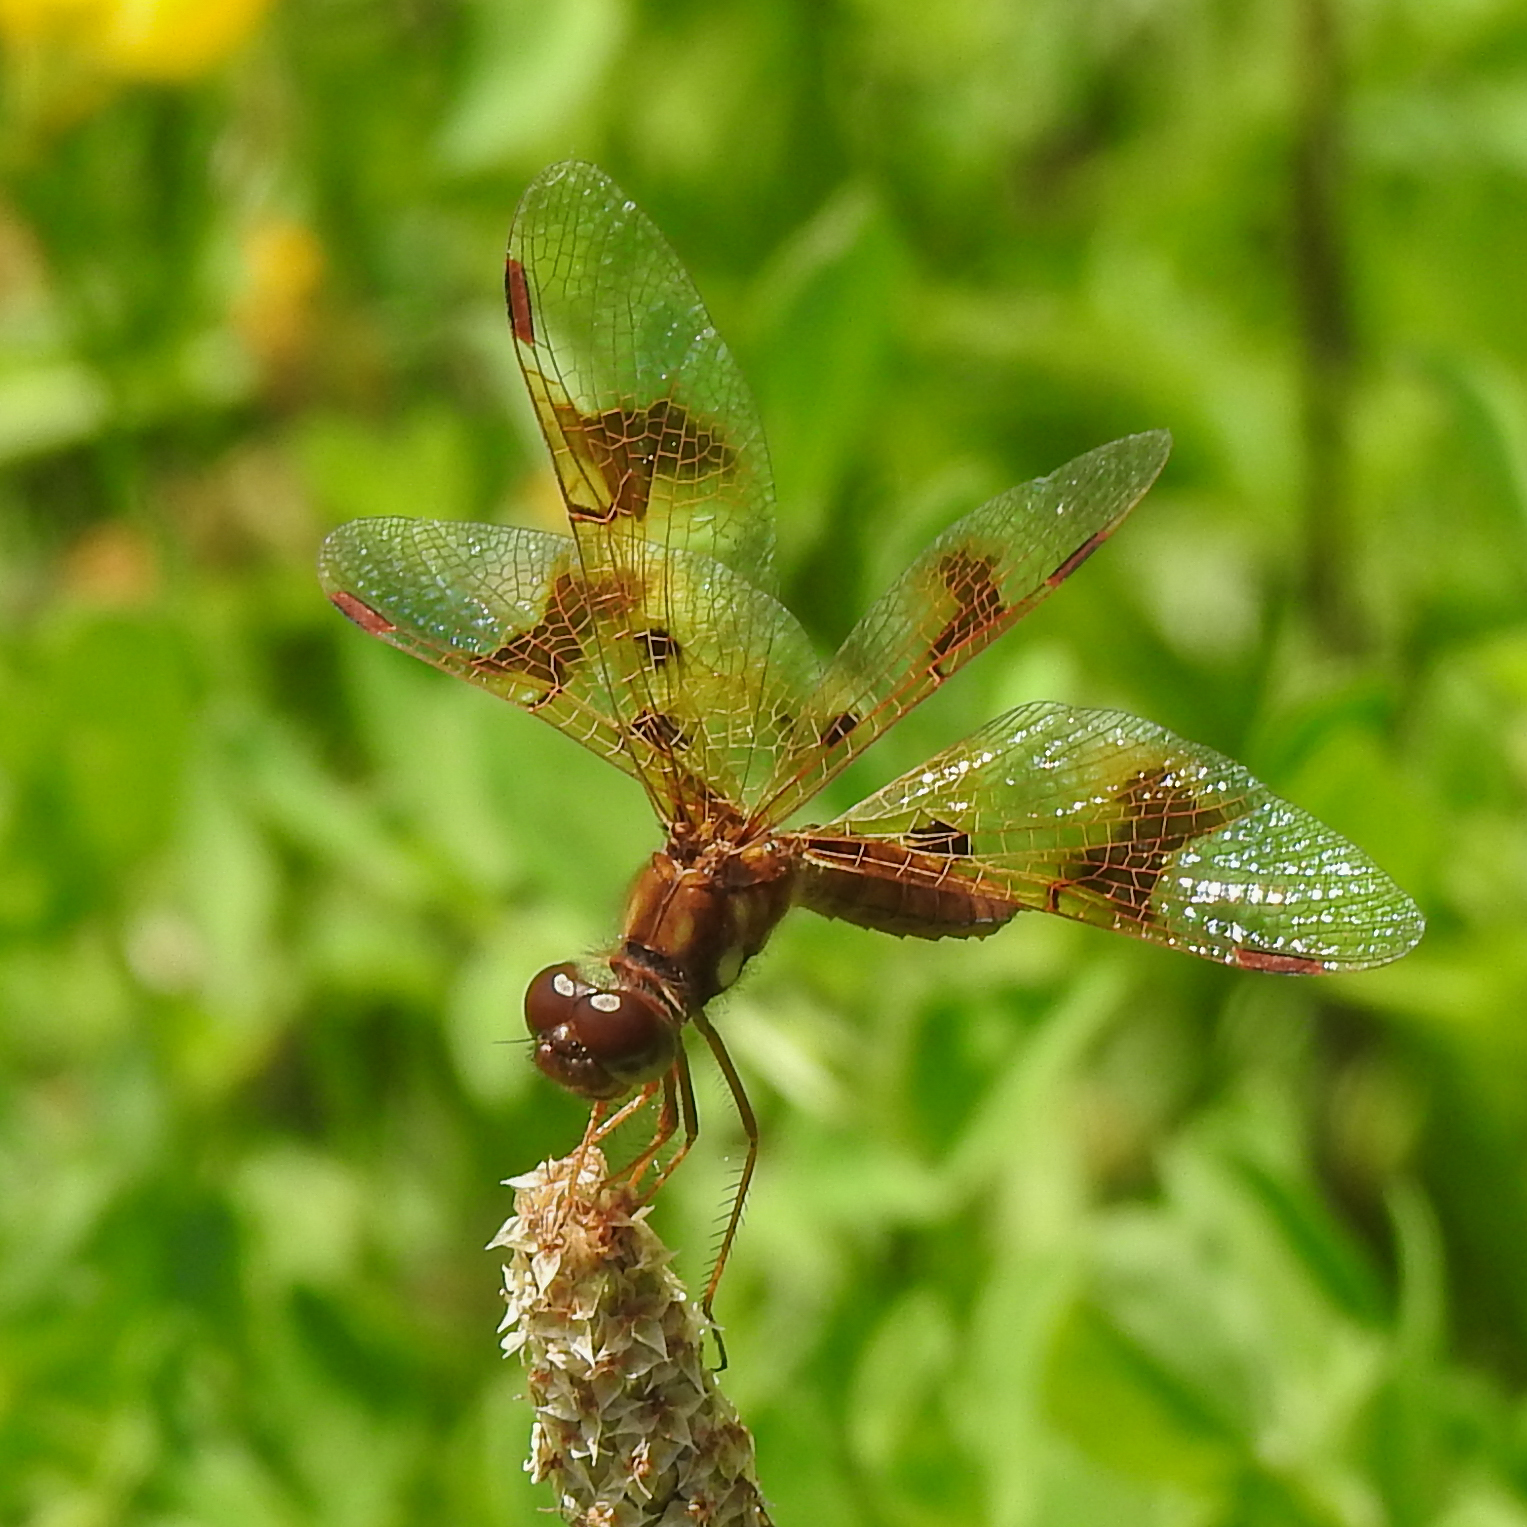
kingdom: Animalia
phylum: Arthropoda
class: Insecta
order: Odonata
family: Libellulidae
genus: Perithemis
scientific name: Perithemis tenera
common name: Eastern amberwing
